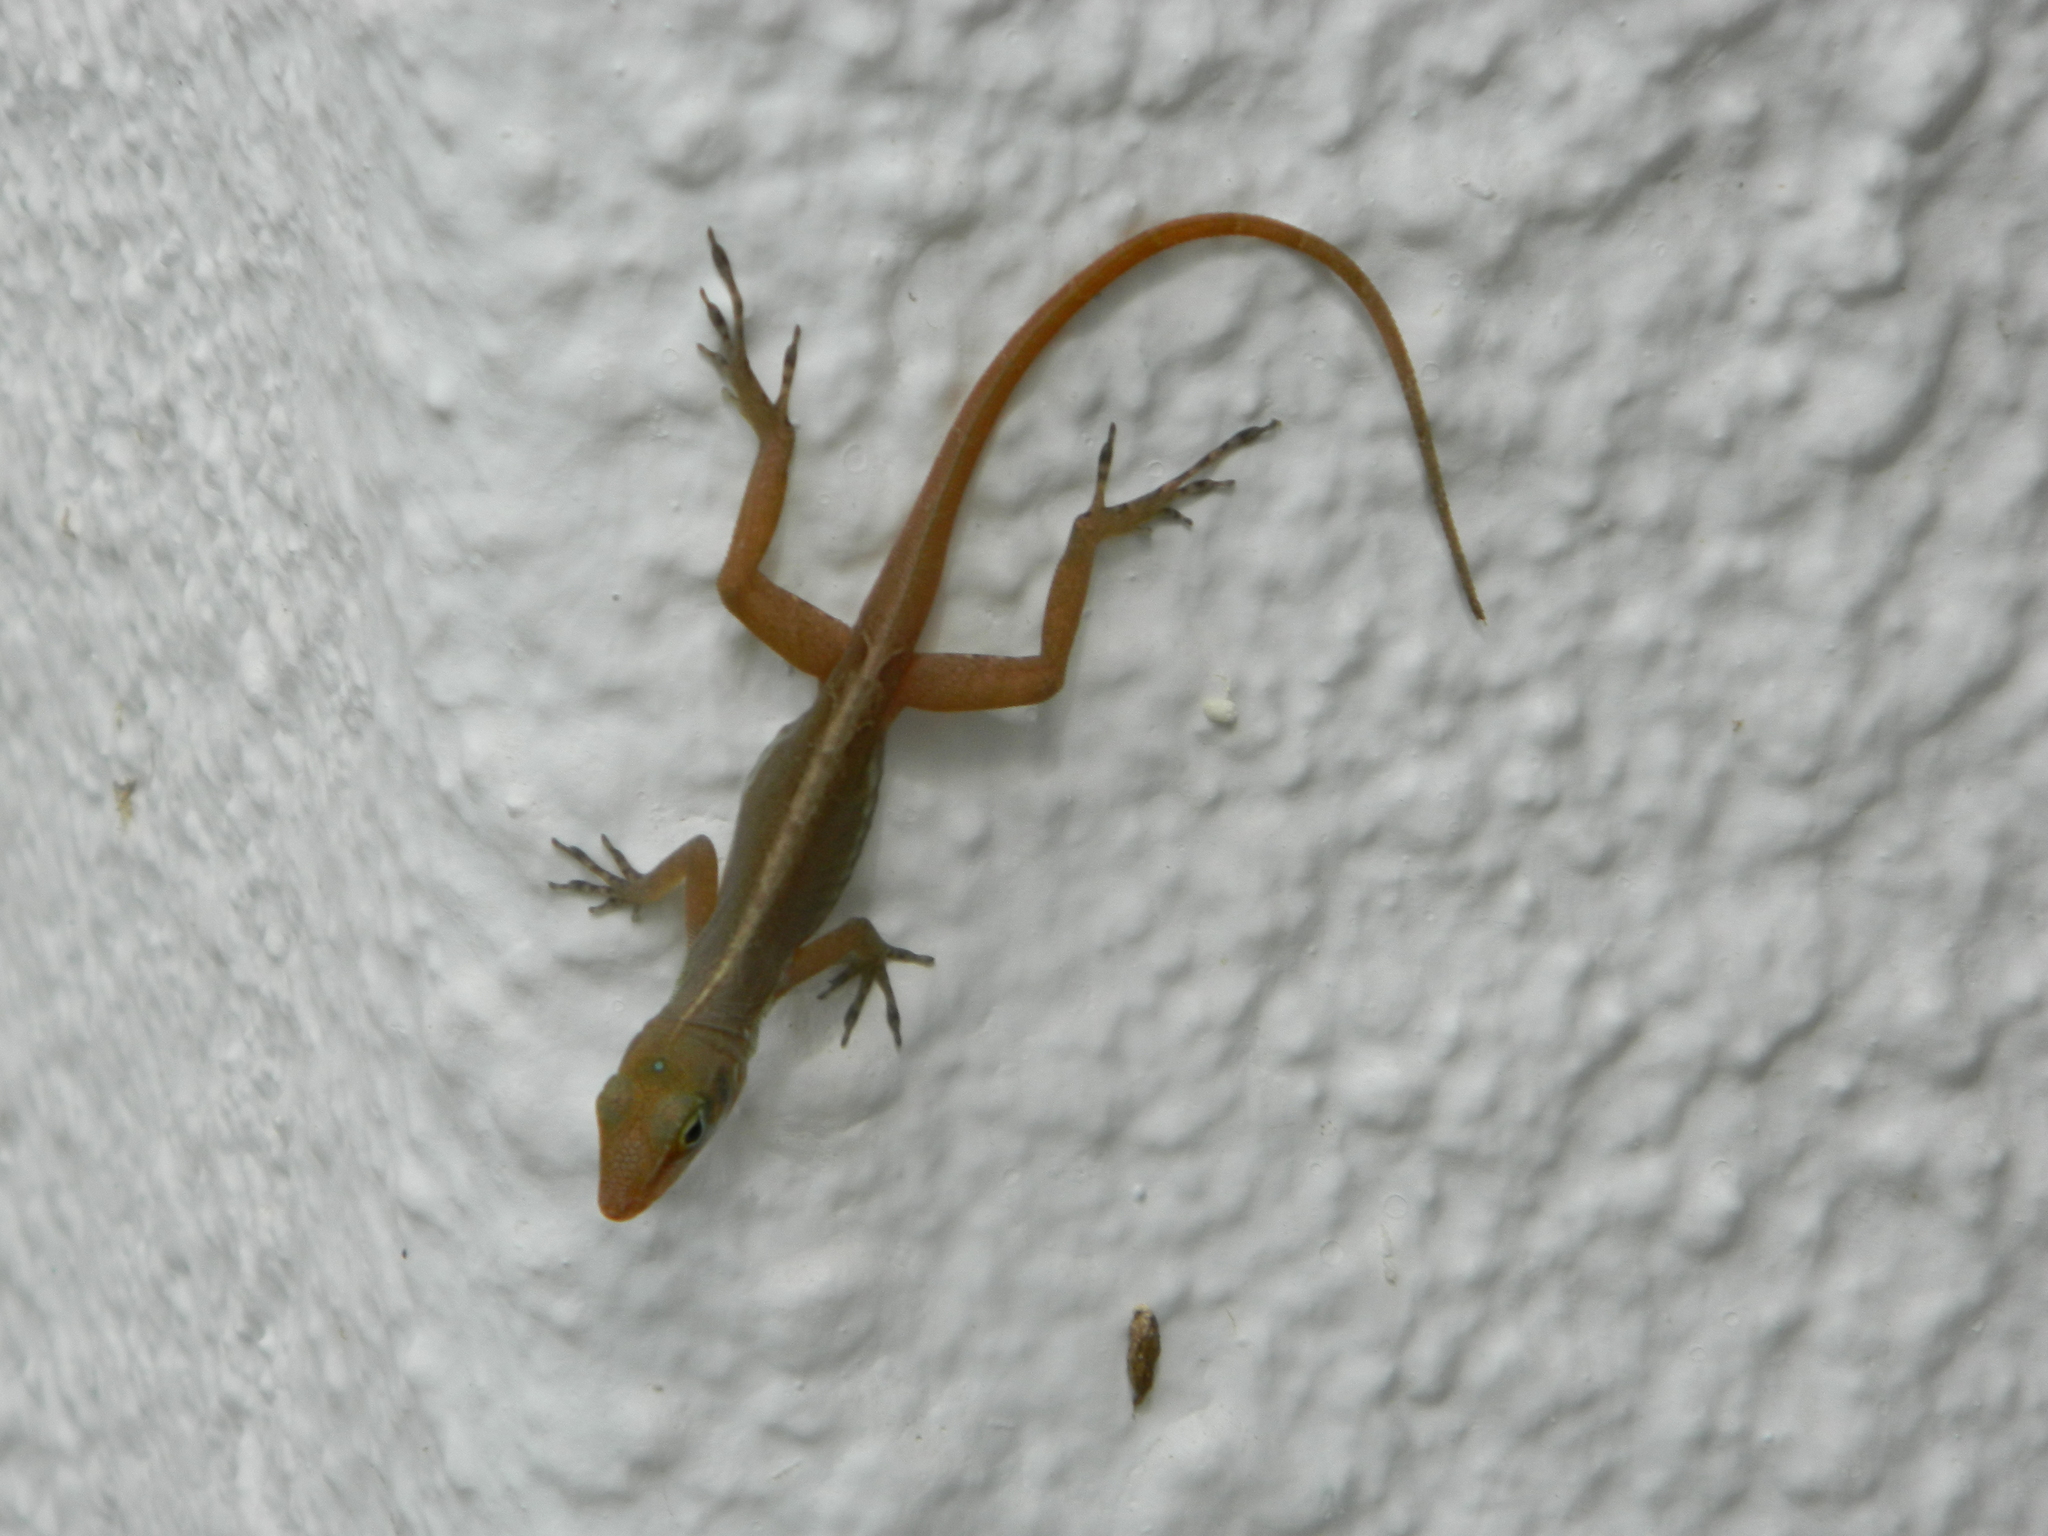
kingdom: Animalia
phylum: Chordata
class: Squamata
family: Dactyloidae
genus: Anolis
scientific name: Anolis wattsii
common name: Antigua bank bush anole
